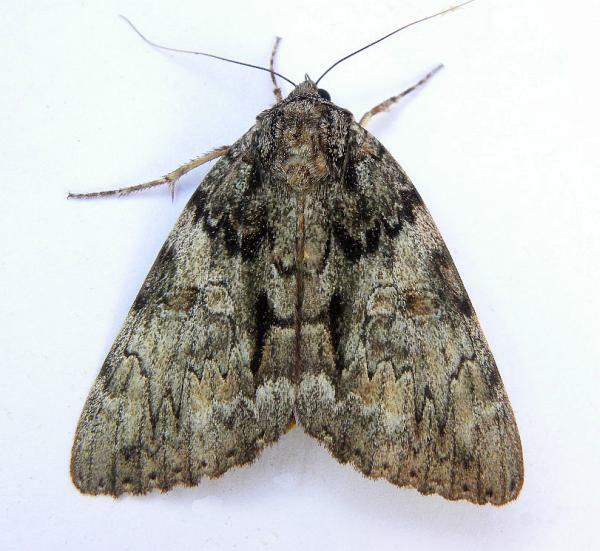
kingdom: Animalia
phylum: Arthropoda
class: Insecta
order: Lepidoptera
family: Erebidae
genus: Catocala
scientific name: Catocala palaeogama
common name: Oldwife underwing
